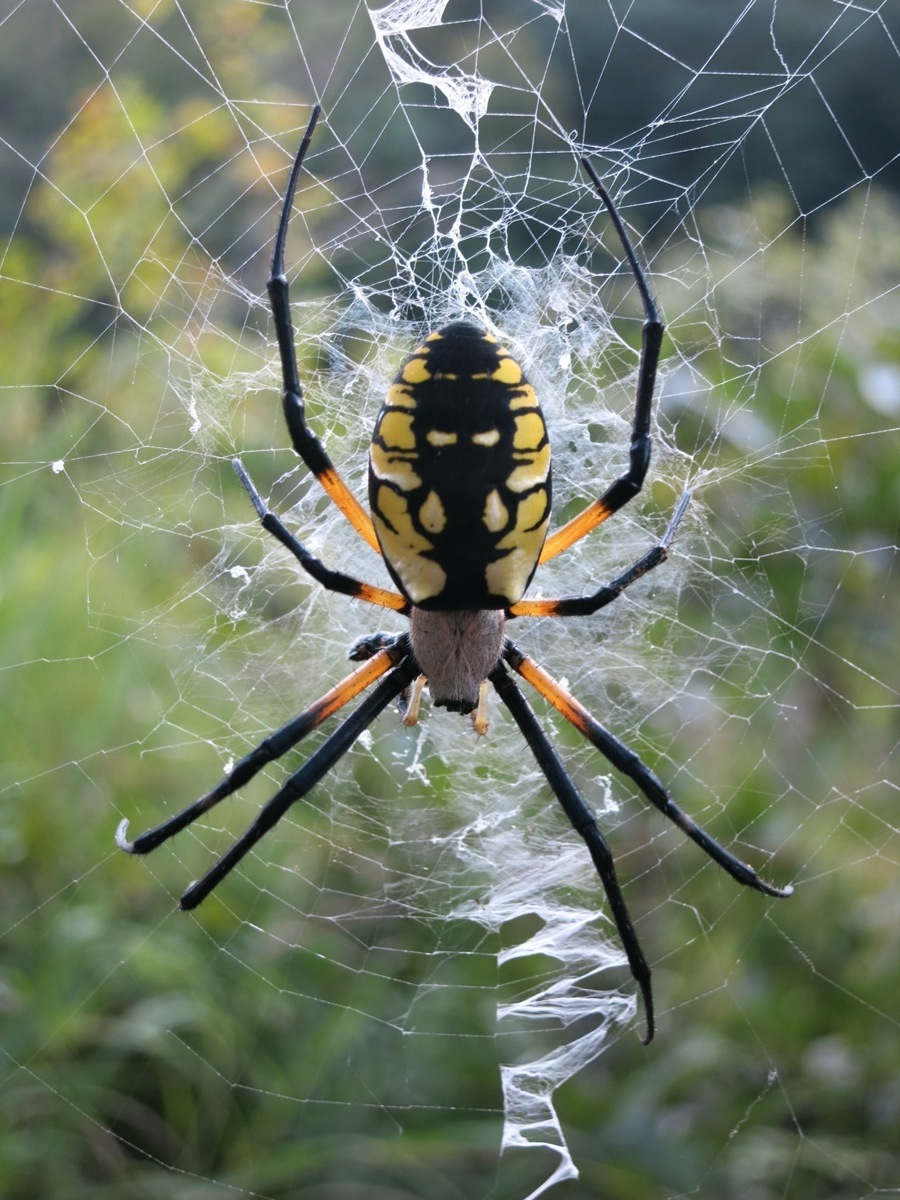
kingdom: Animalia
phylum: Arthropoda
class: Arachnida
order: Araneae
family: Araneidae
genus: Argiope
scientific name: Argiope aurantia
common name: Orb weavers
